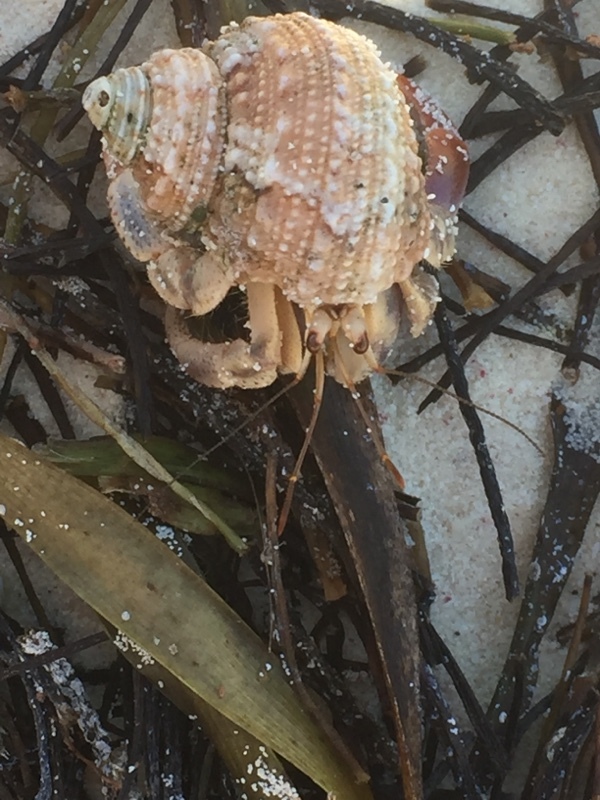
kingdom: Animalia
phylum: Arthropoda
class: Malacostraca
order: Decapoda
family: Coenobitidae
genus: Coenobita
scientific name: Coenobita clypeatus
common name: Caribbean hermit crab
